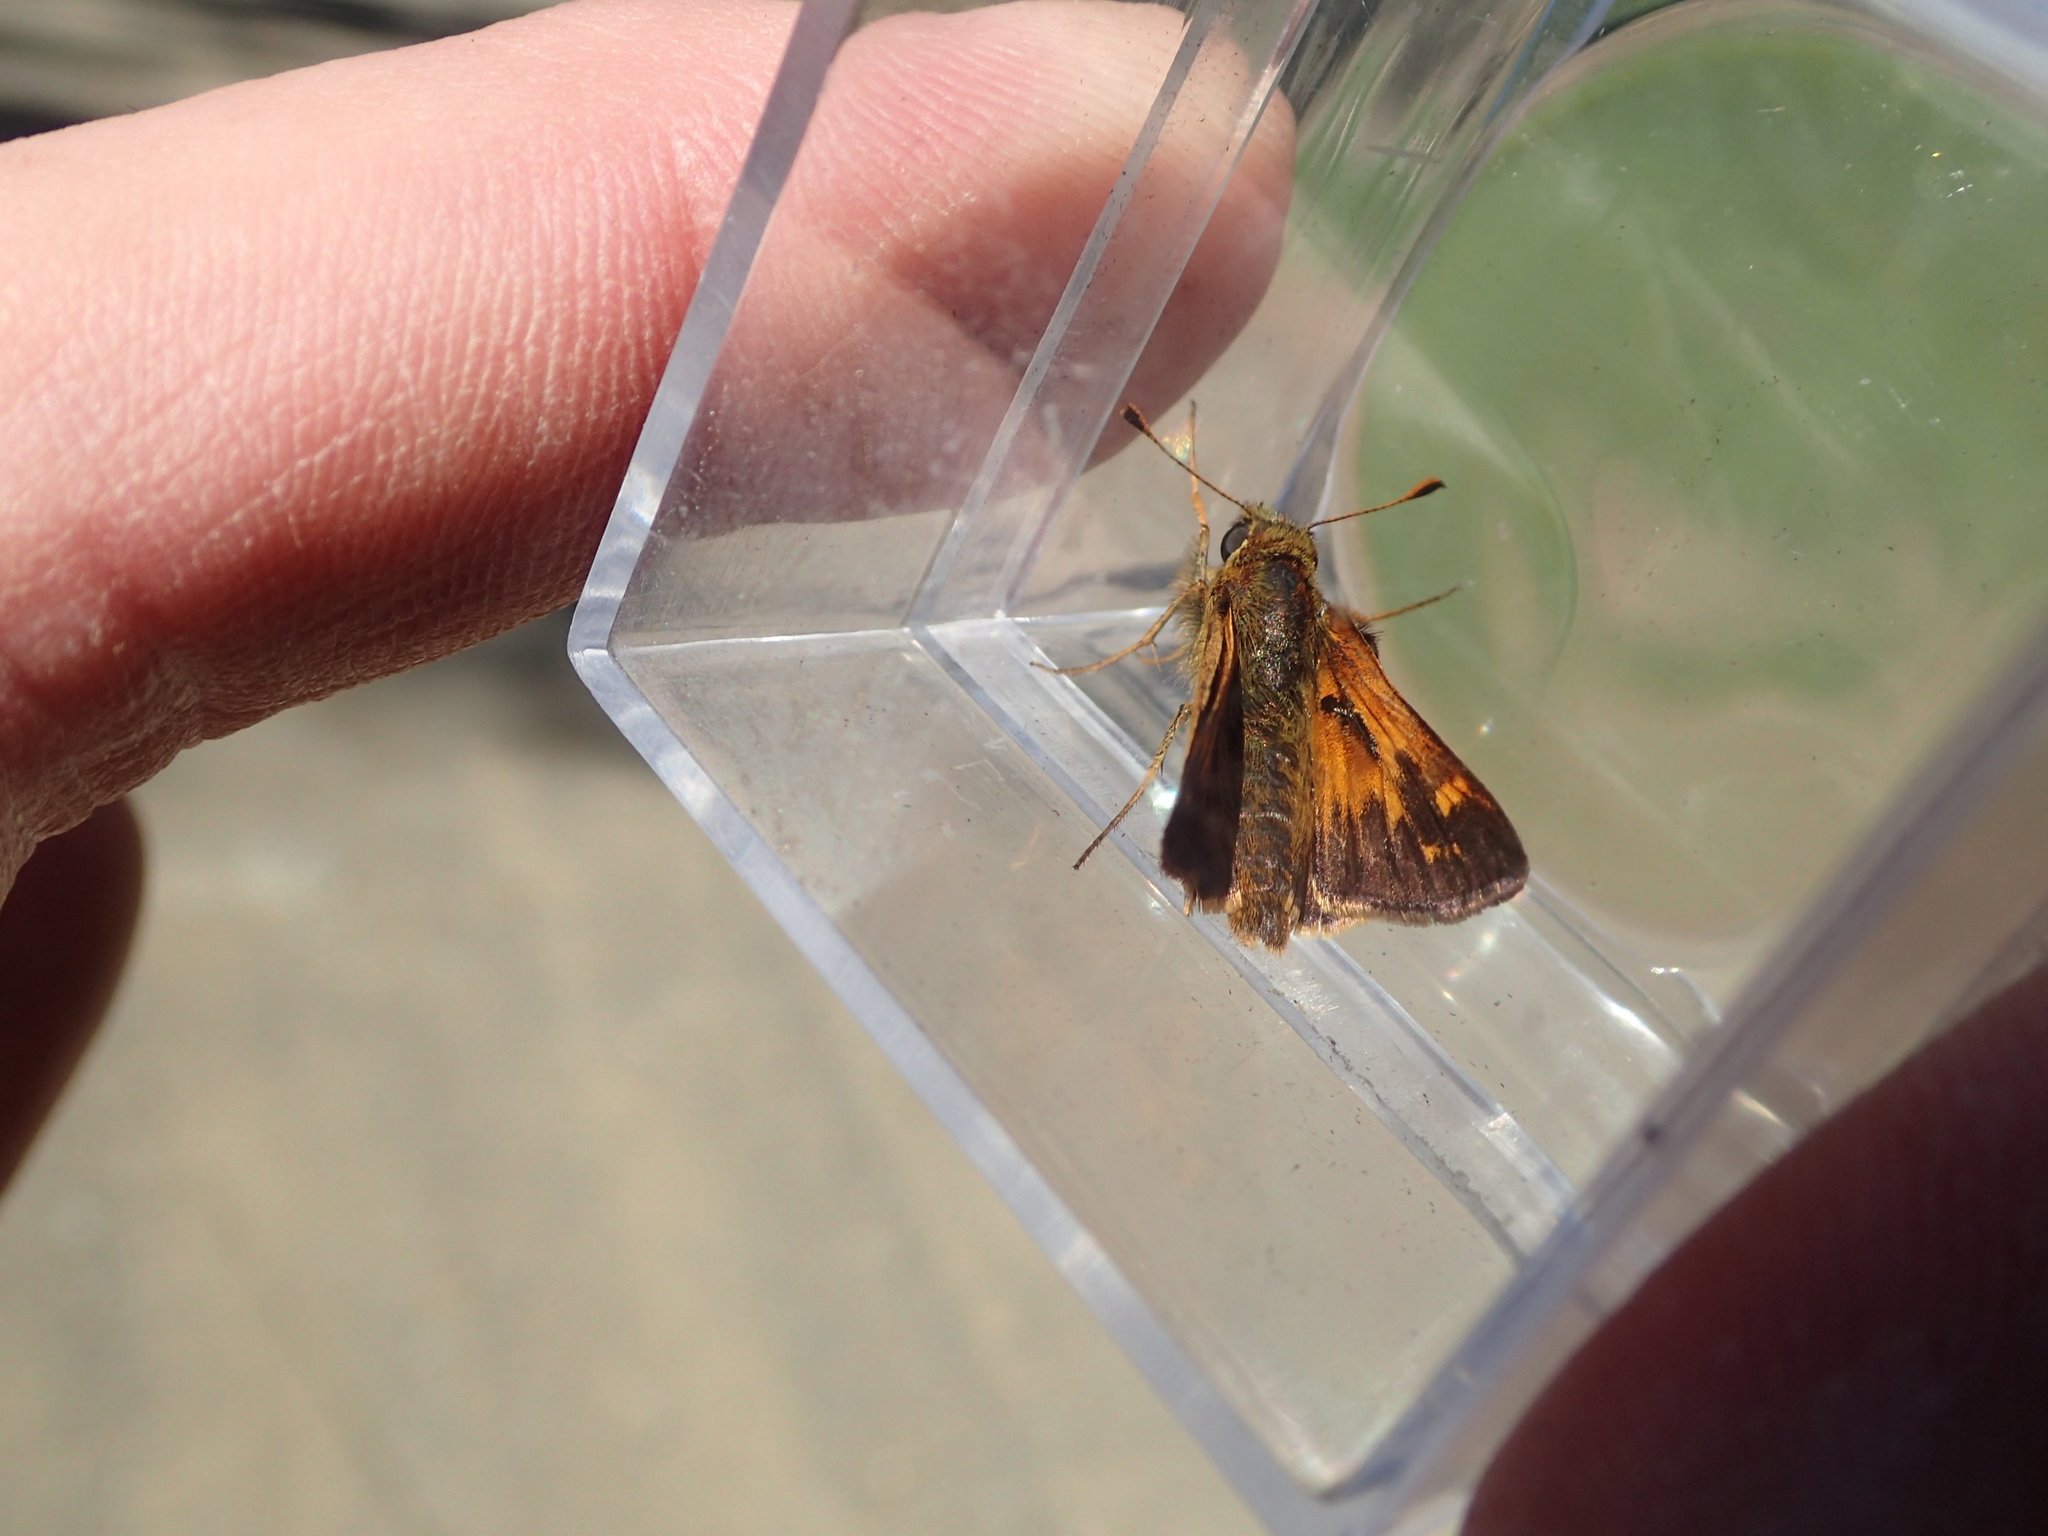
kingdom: Animalia
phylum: Arthropoda
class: Insecta
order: Lepidoptera
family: Hesperiidae
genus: Hesperia
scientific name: Hesperia sassacus
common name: Indian skipper
